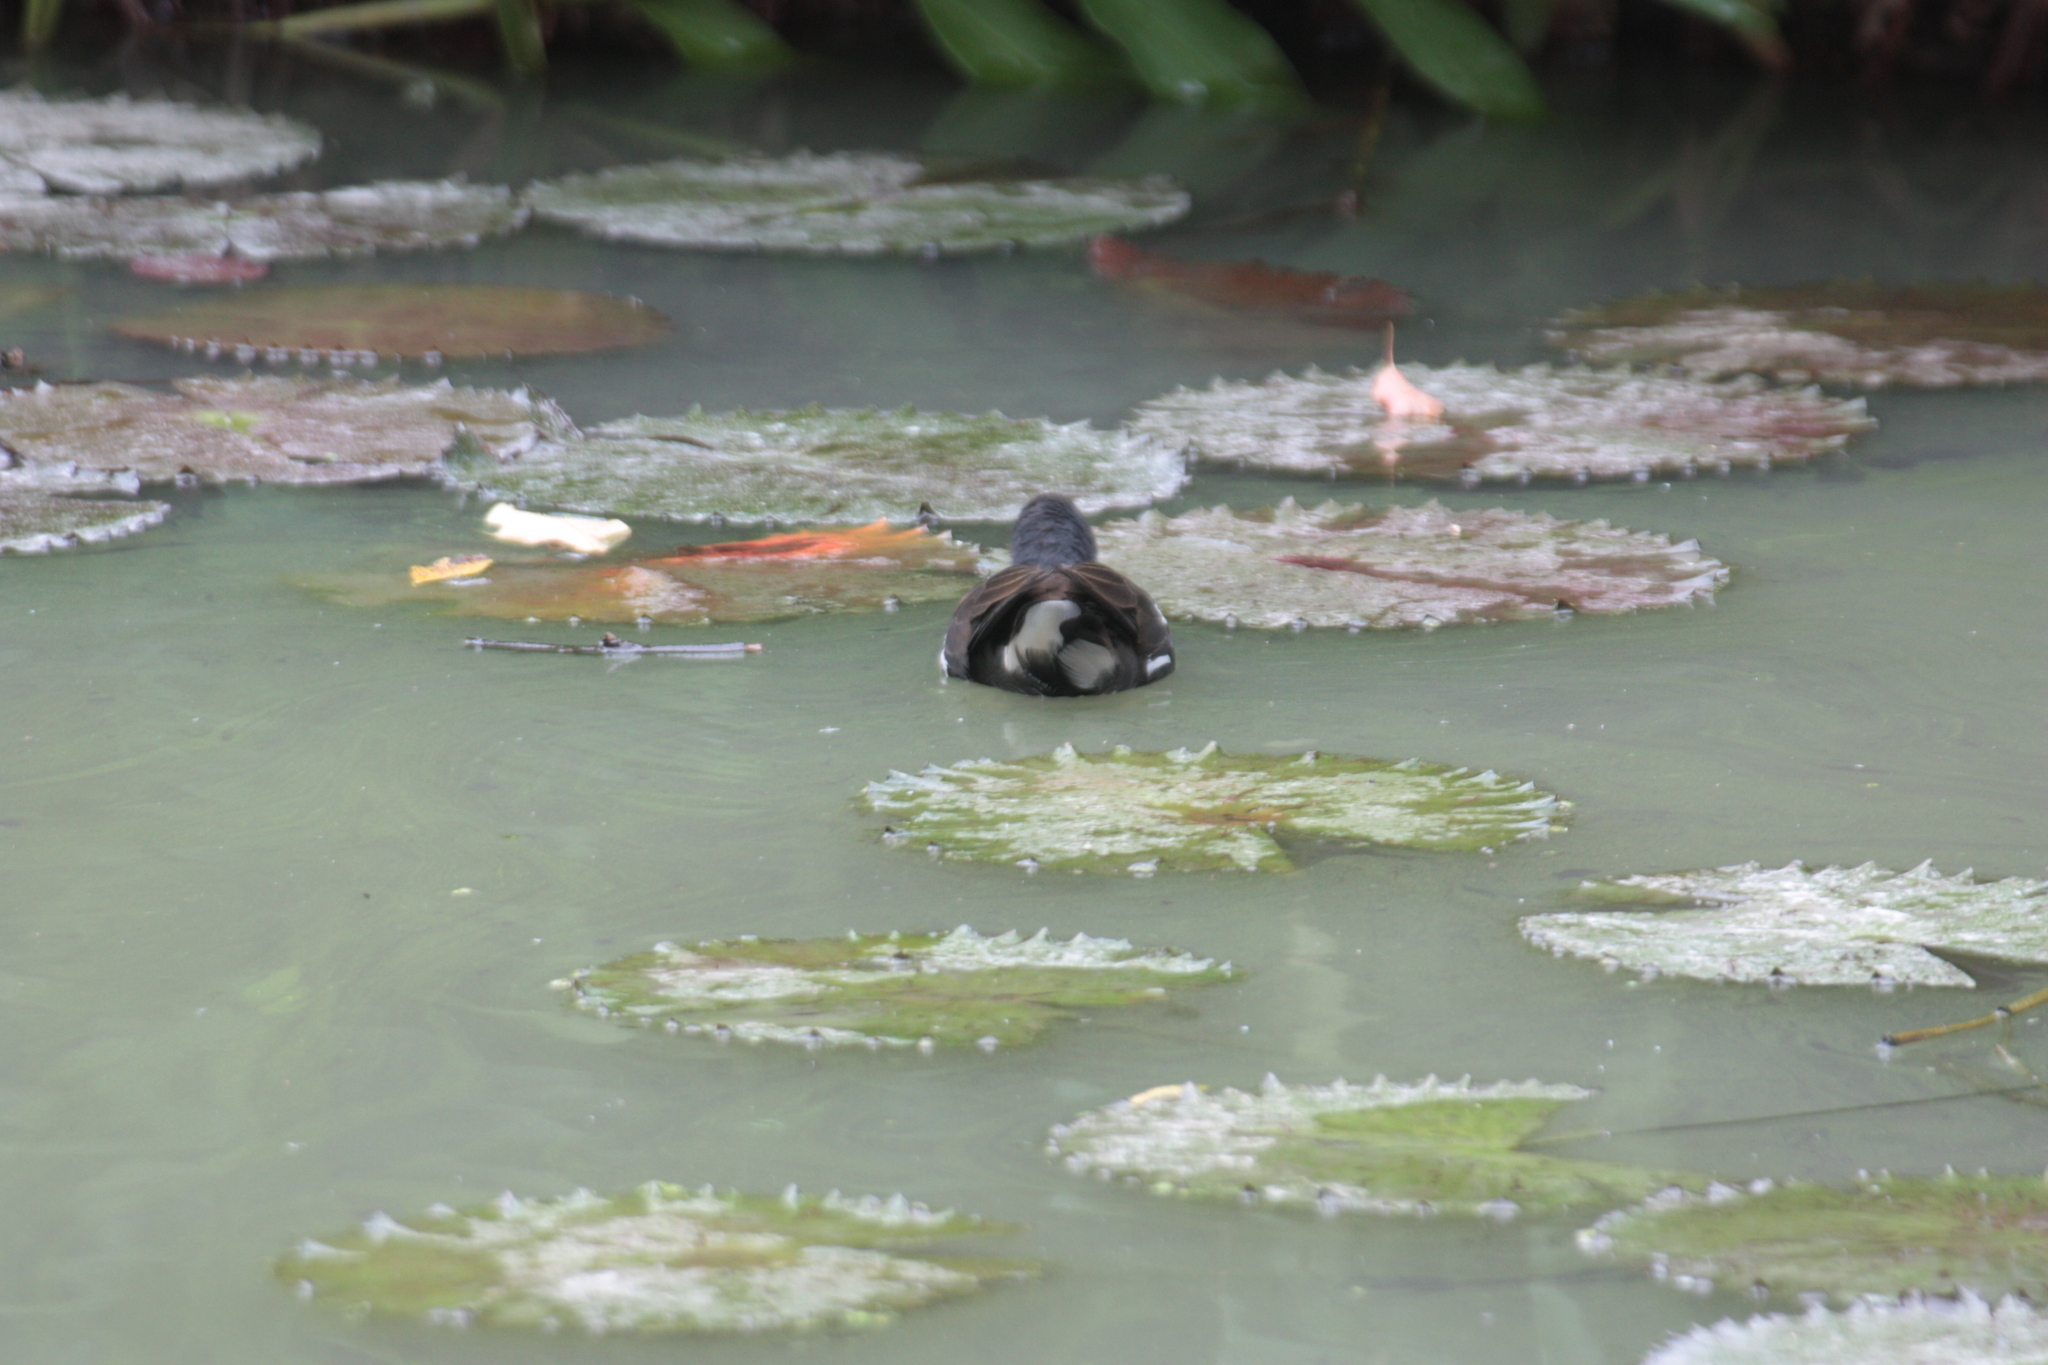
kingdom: Animalia
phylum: Chordata
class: Aves
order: Gruiformes
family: Rallidae
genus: Gallinula
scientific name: Gallinula chloropus
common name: Common moorhen
